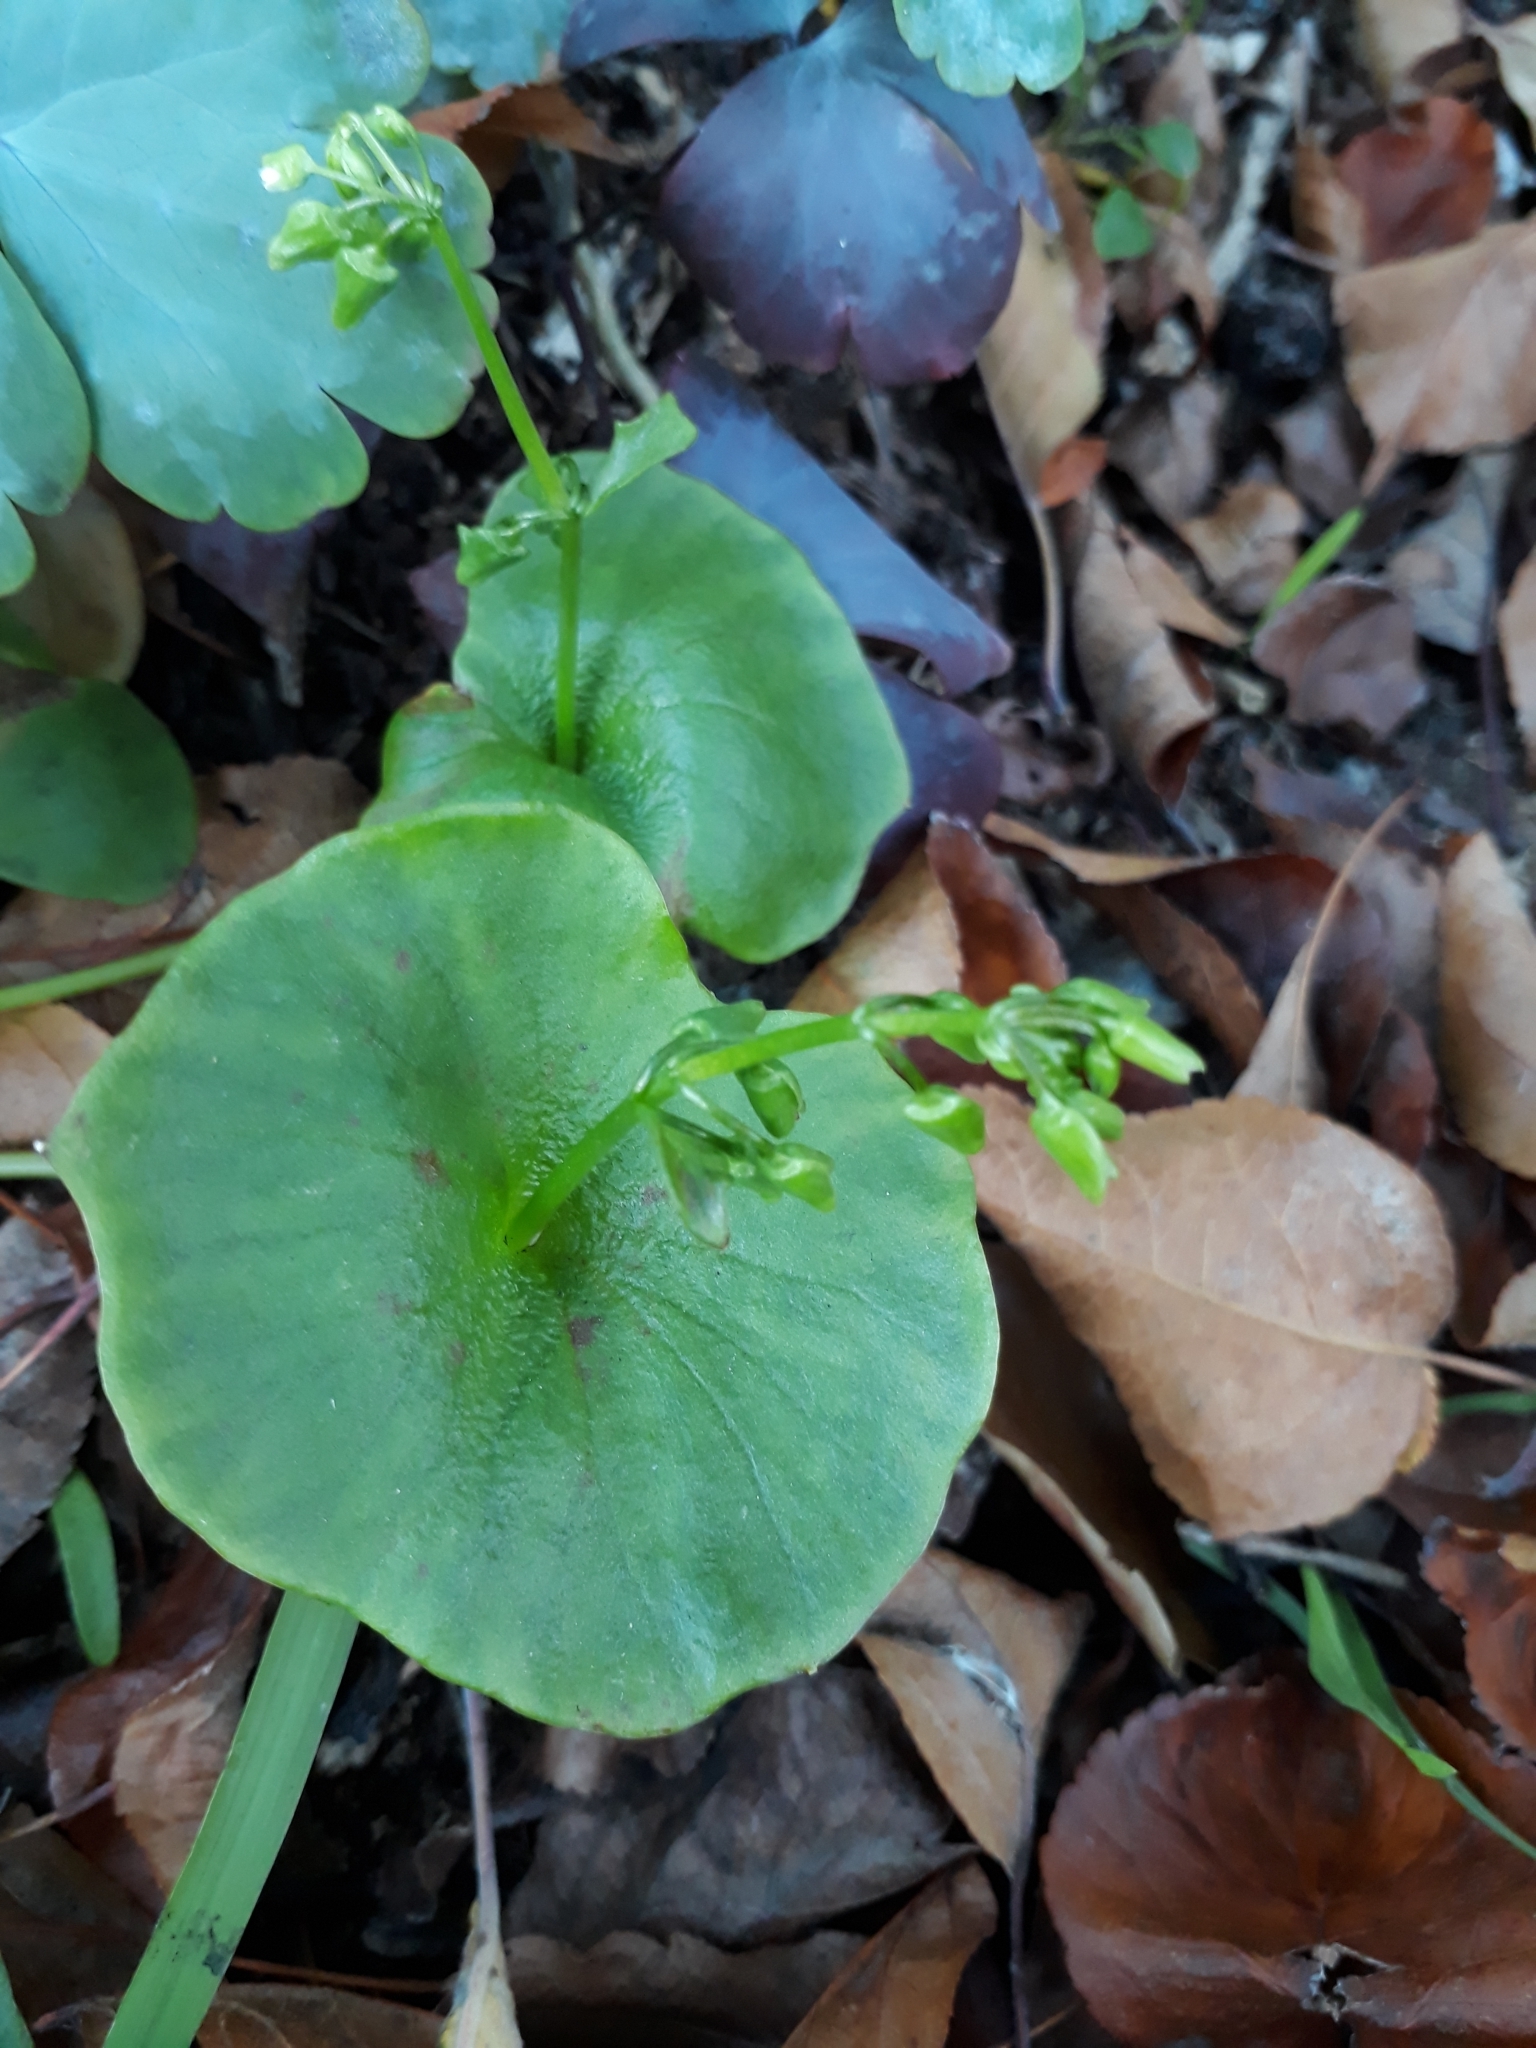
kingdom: Plantae
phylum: Tracheophyta
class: Magnoliopsida
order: Caryophyllales
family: Montiaceae
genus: Claytonia
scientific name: Claytonia perfoliata
